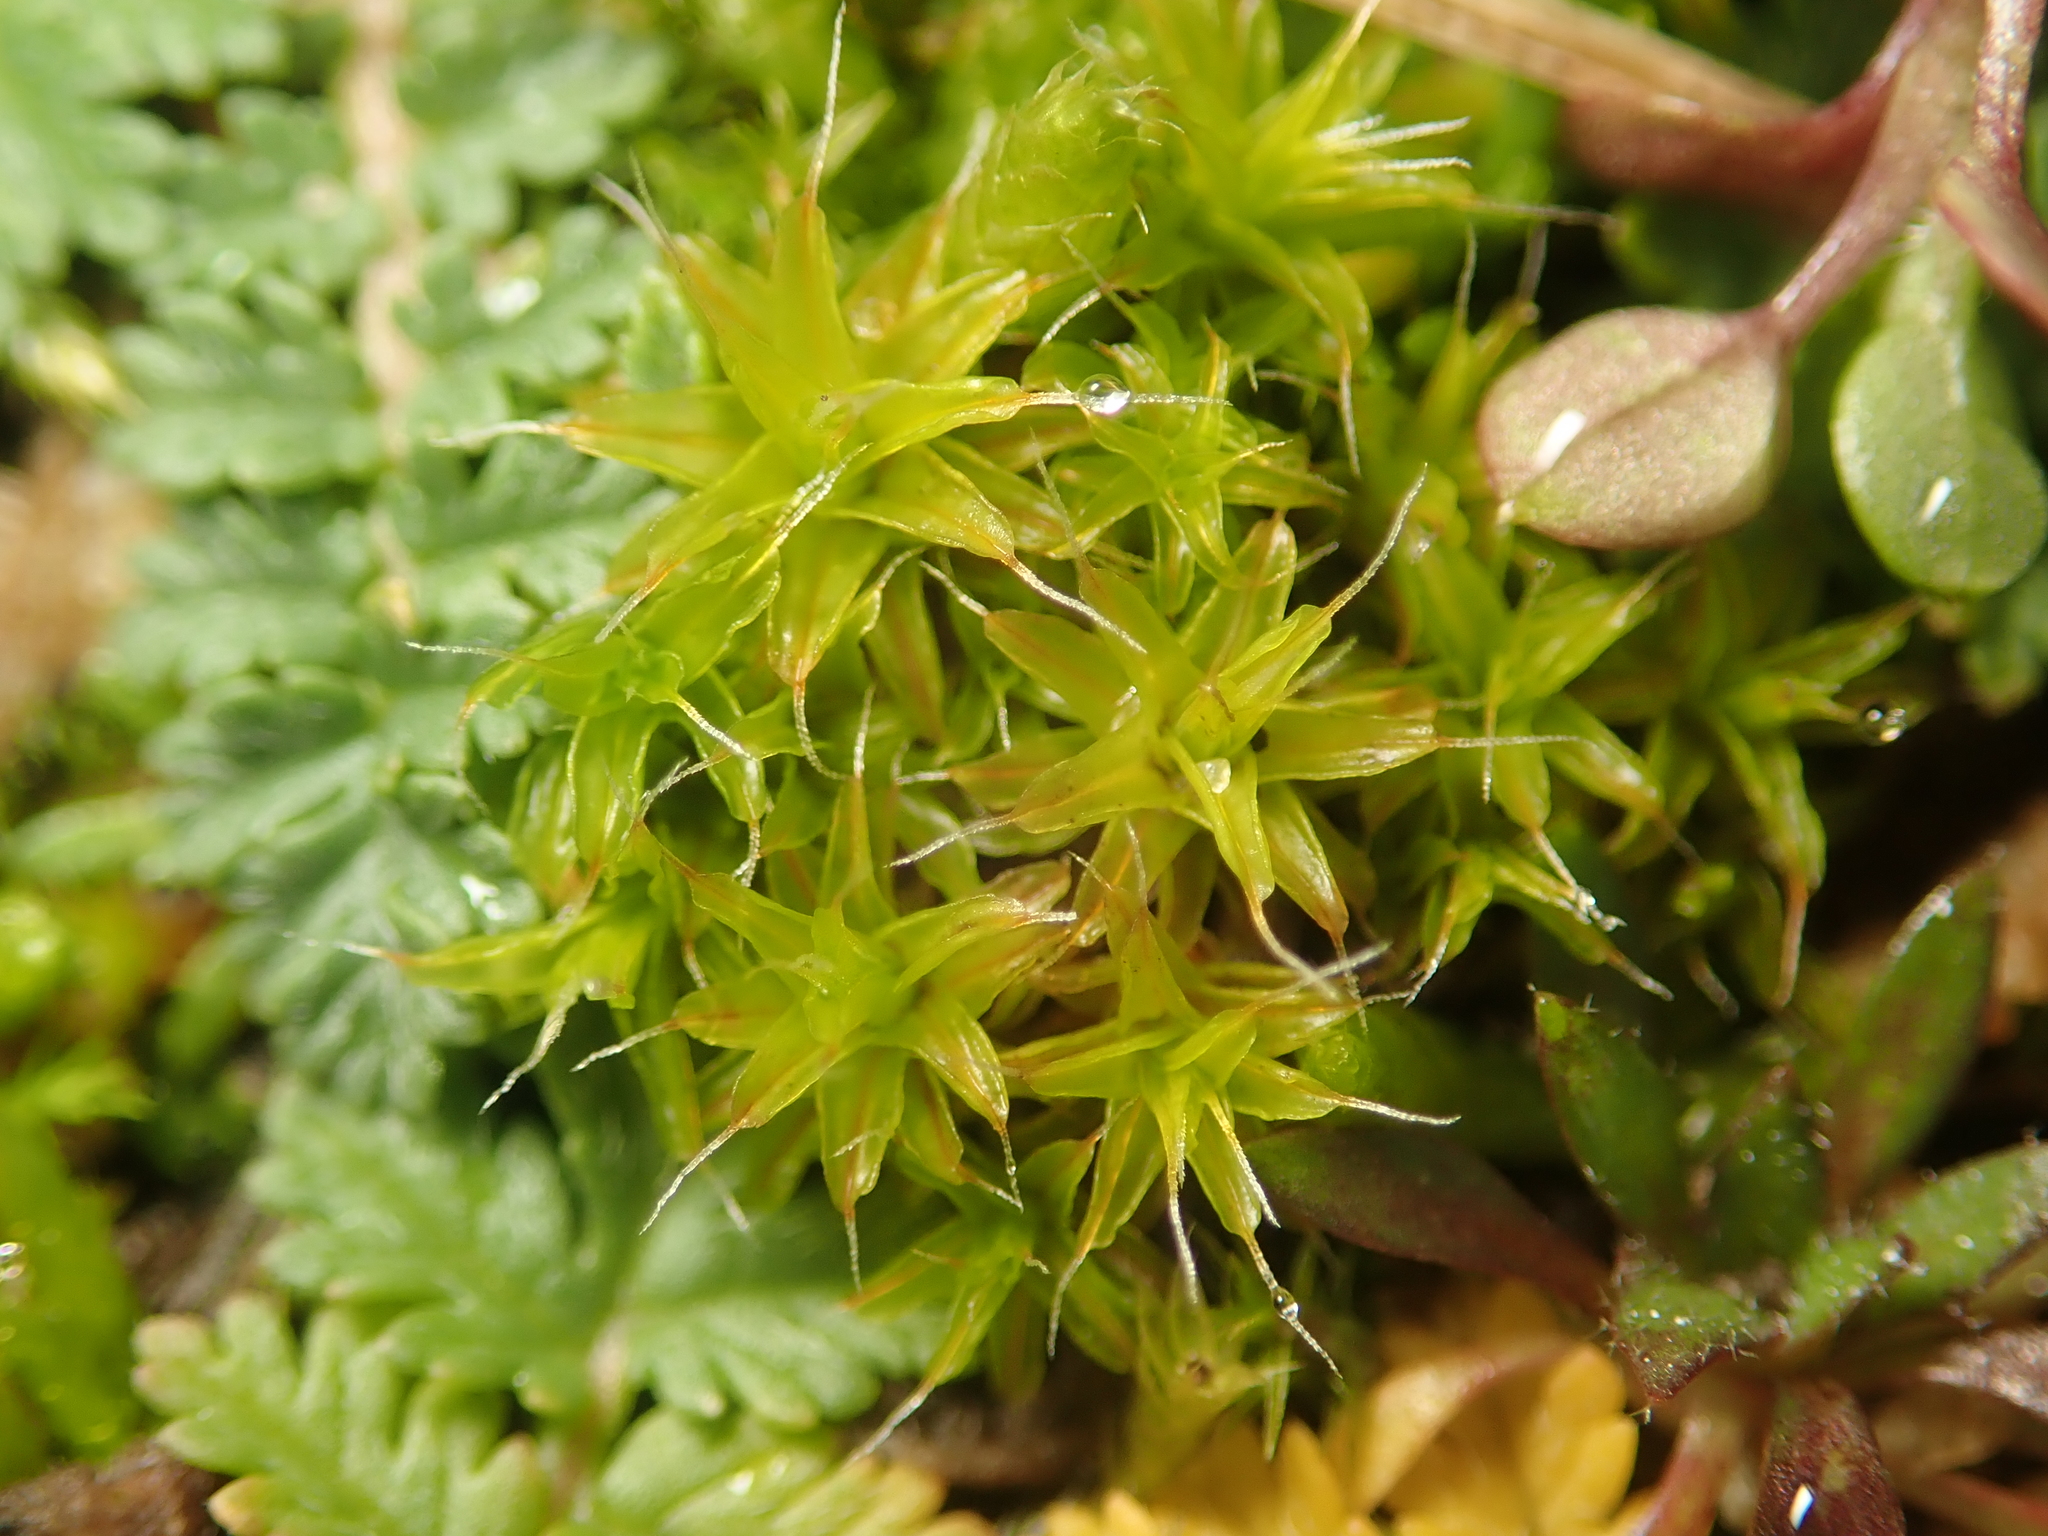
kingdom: Plantae
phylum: Bryophyta
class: Bryopsida
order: Pottiales
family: Pottiaceae
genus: Syntrichia
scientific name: Syntrichia ruralis
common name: Sidewalk screw moss
